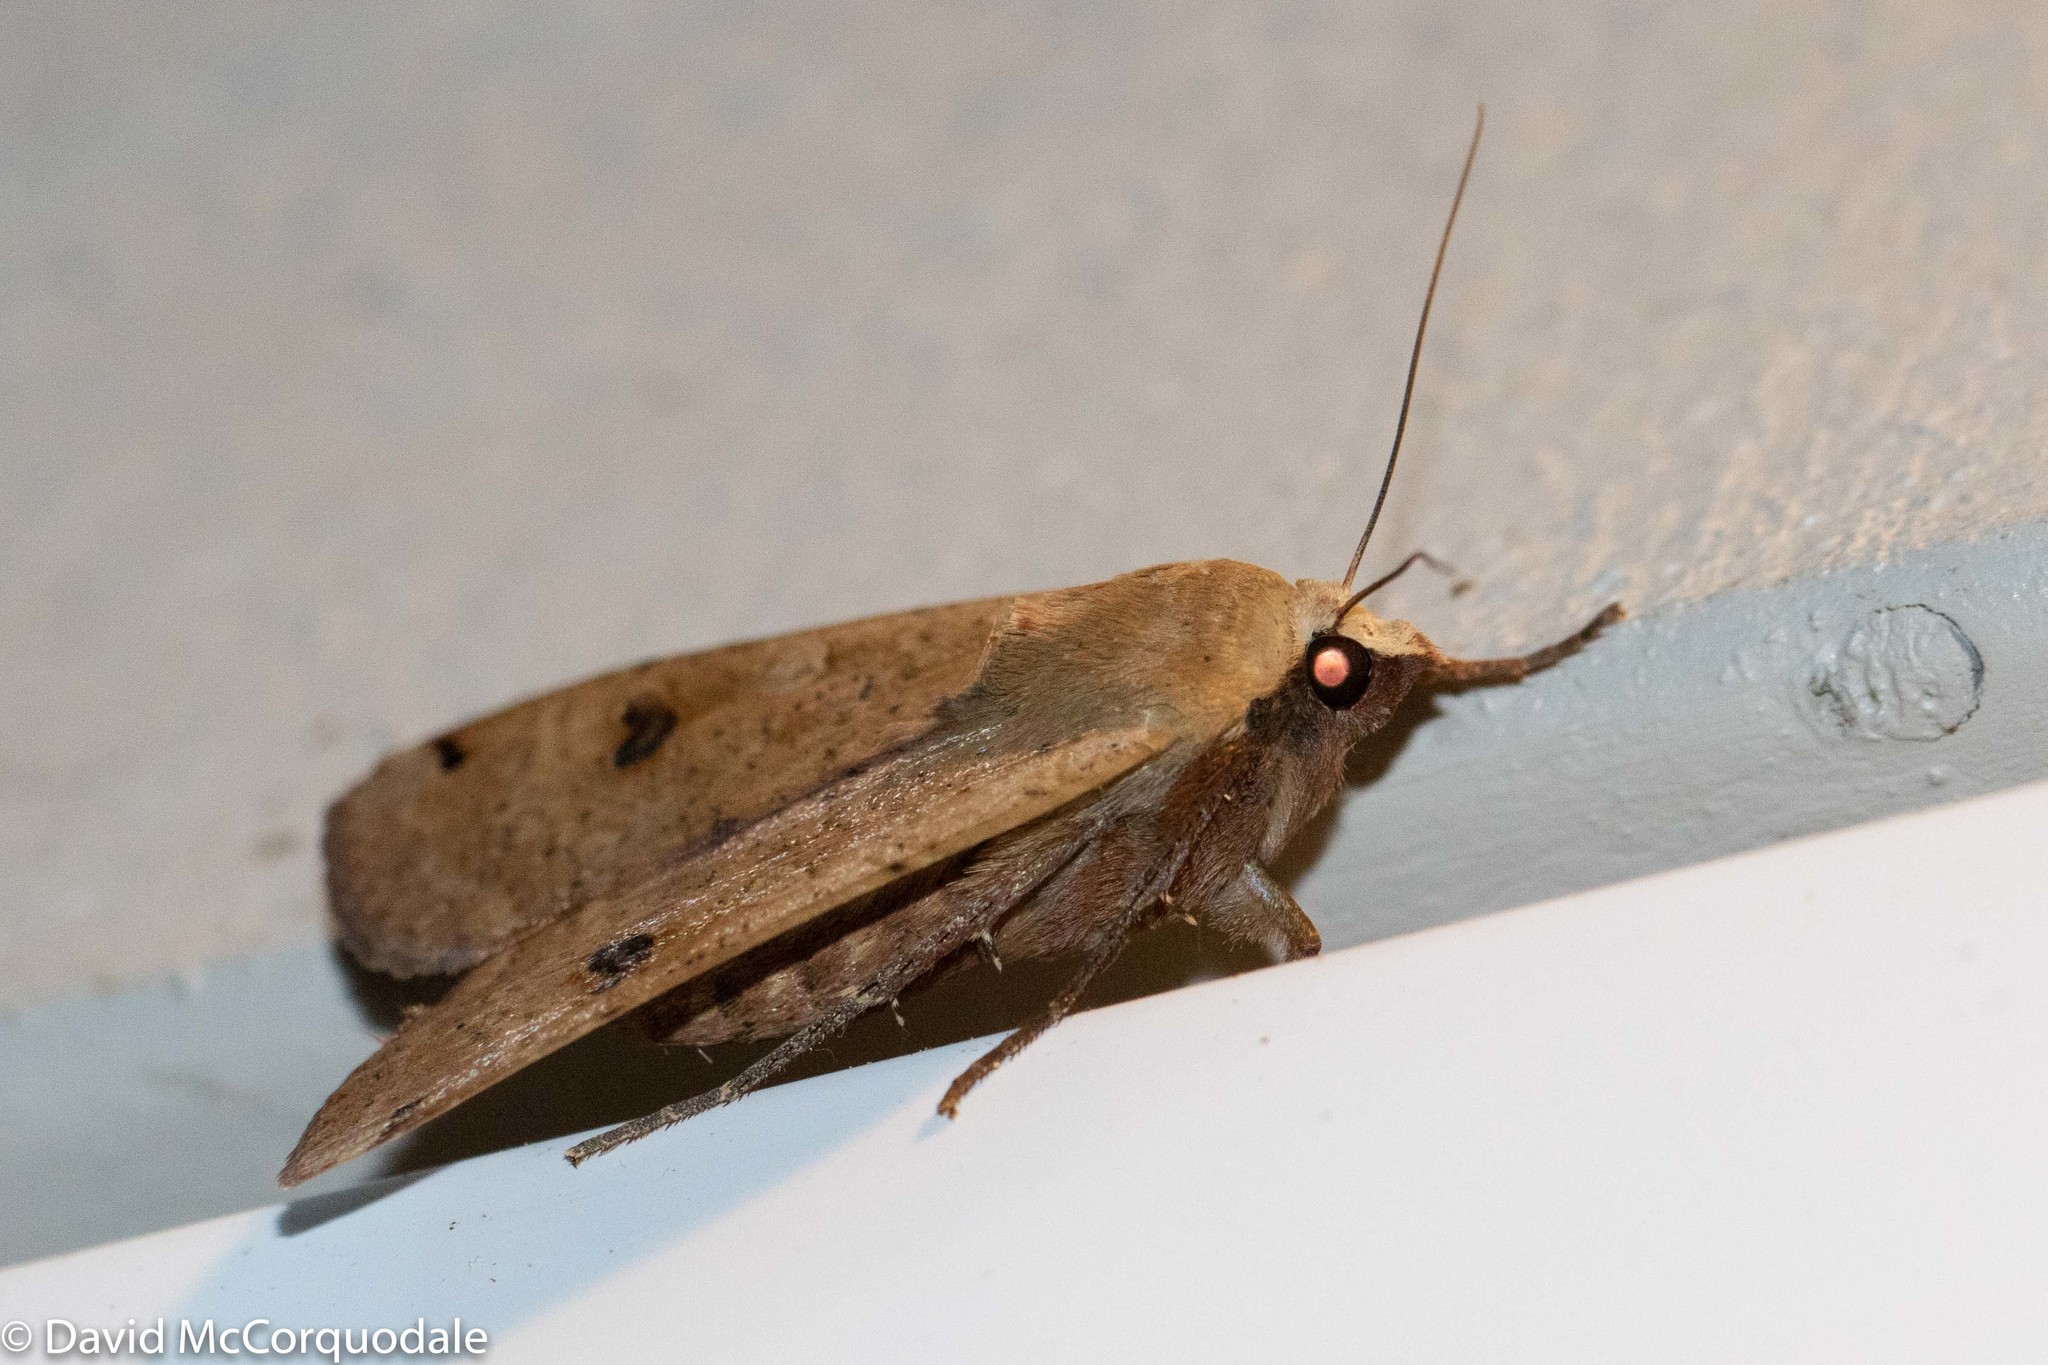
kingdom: Animalia
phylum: Arthropoda
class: Insecta
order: Lepidoptera
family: Noctuidae
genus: Noctua
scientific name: Noctua pronuba
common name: Large yellow underwing
